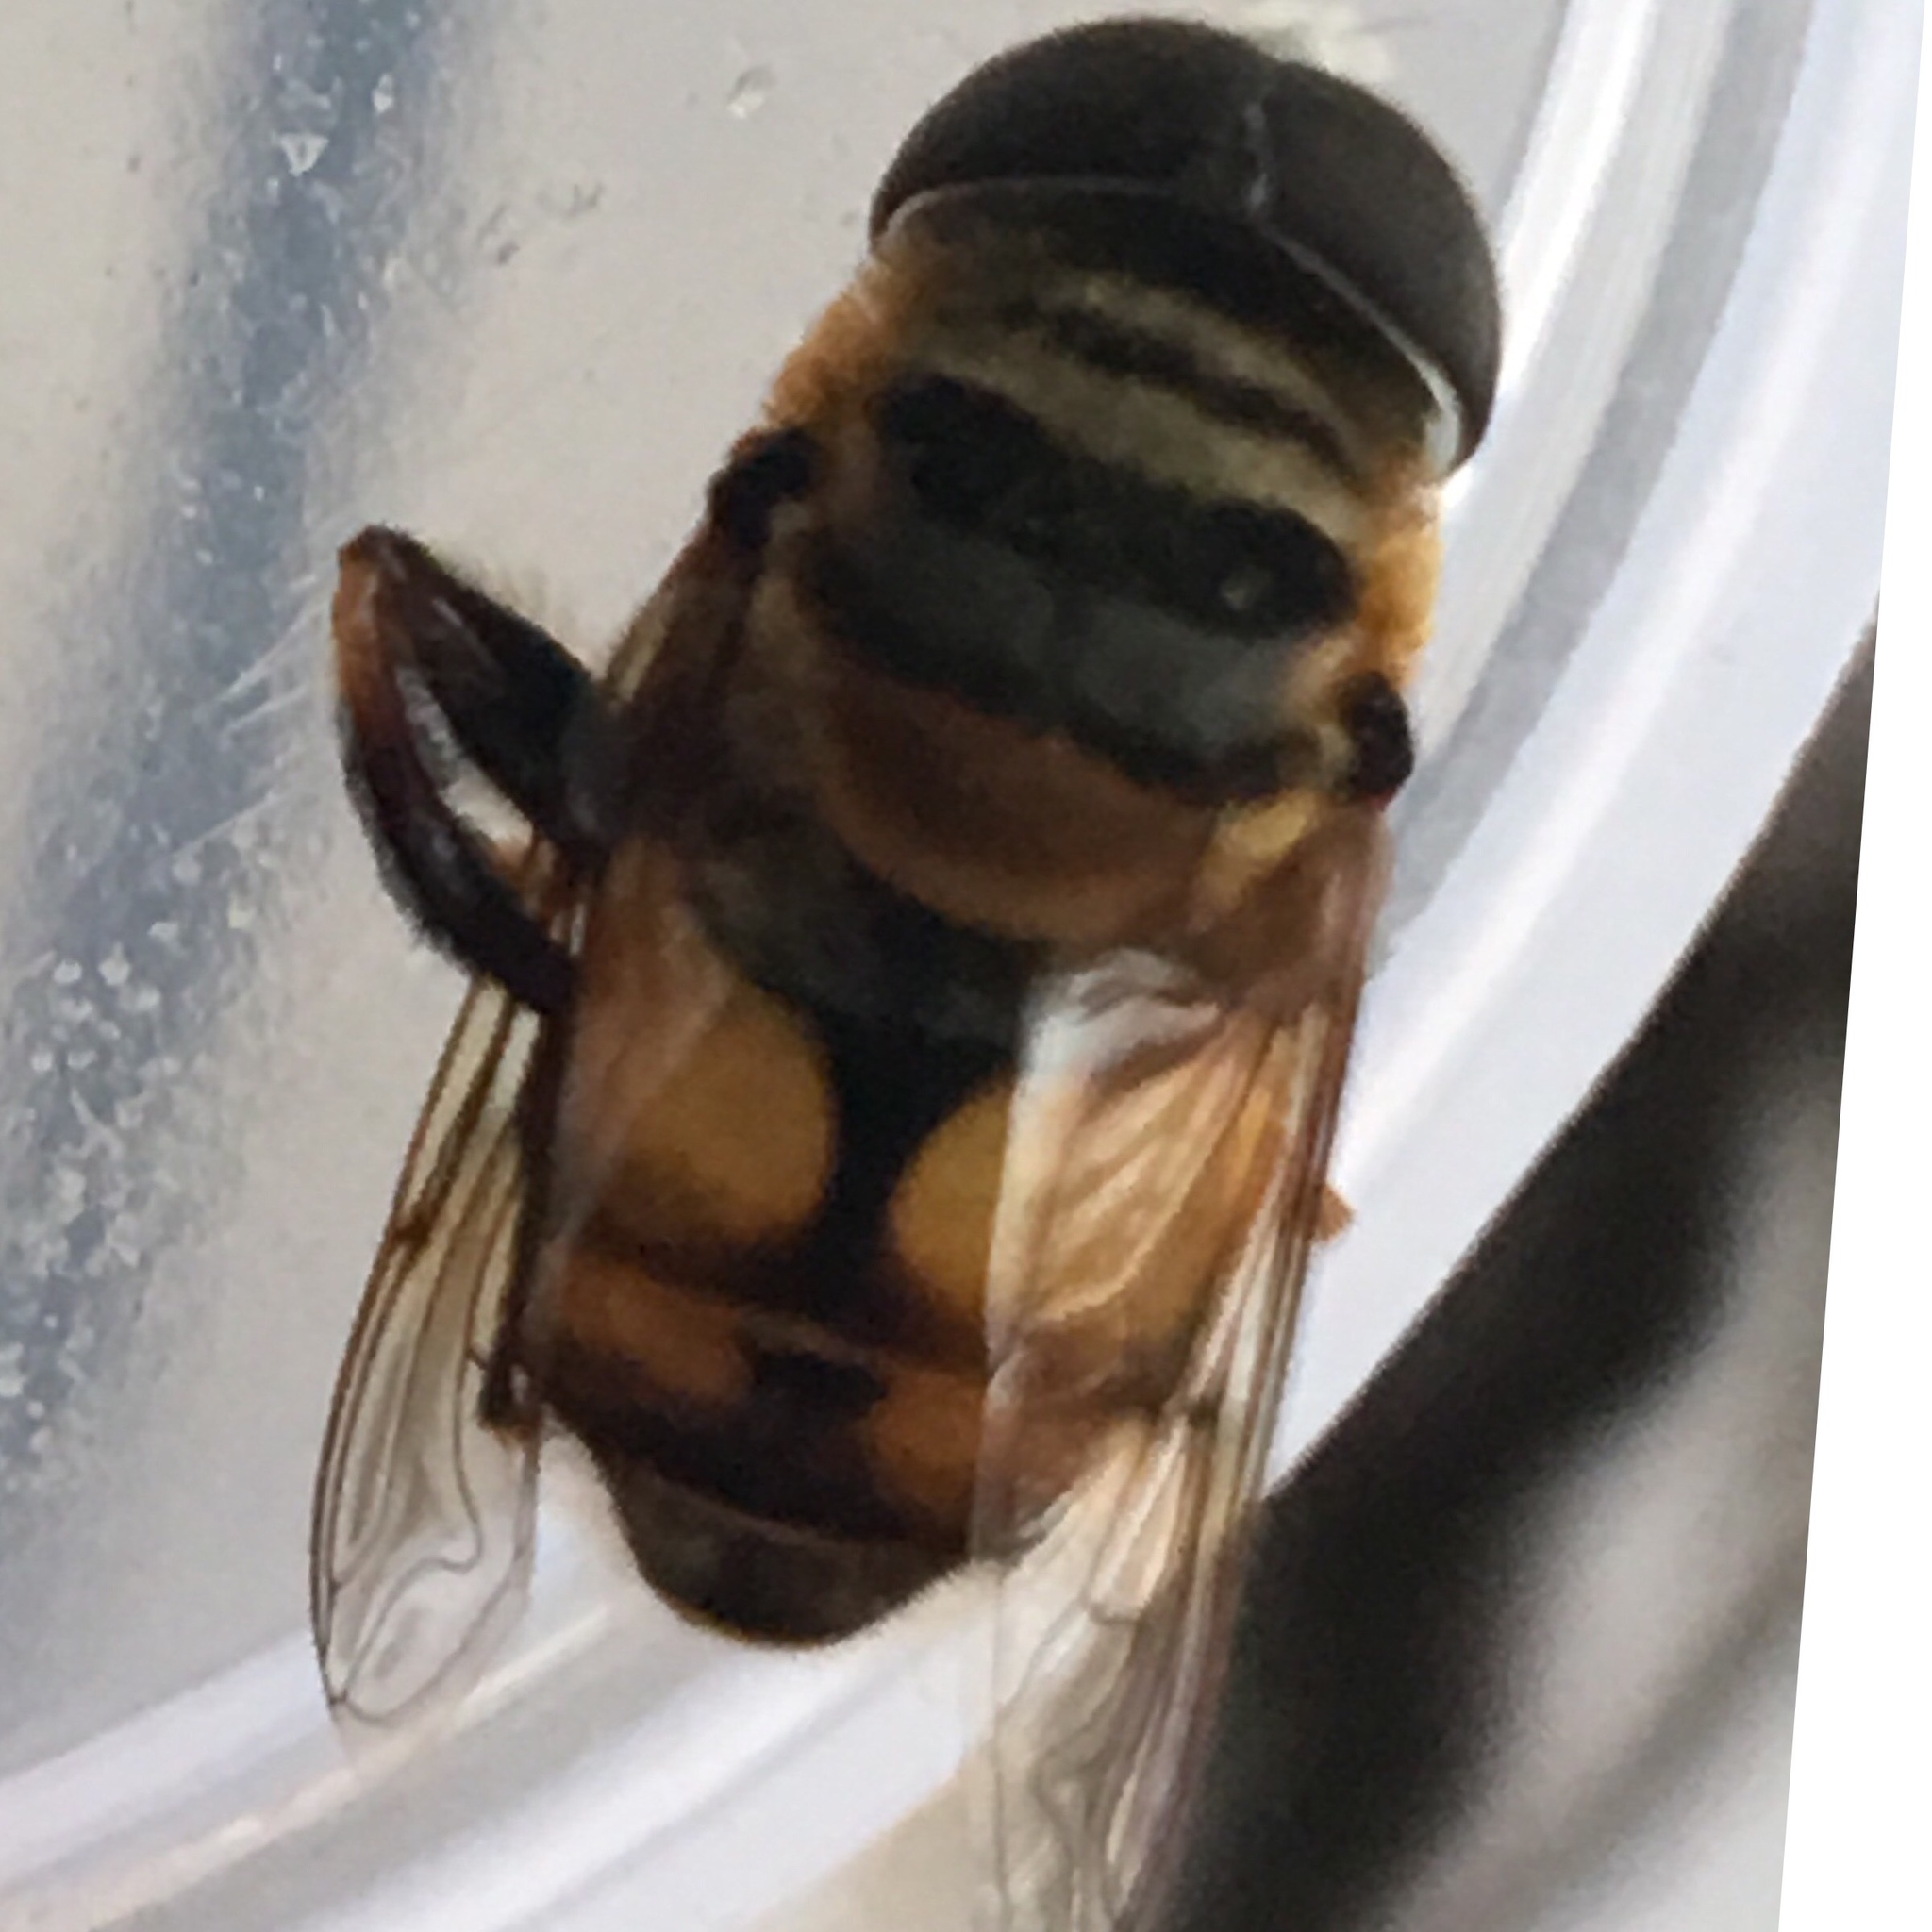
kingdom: Animalia
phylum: Arthropoda
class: Insecta
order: Diptera
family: Syrphidae
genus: Palpada
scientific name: Palpada vinetorum
